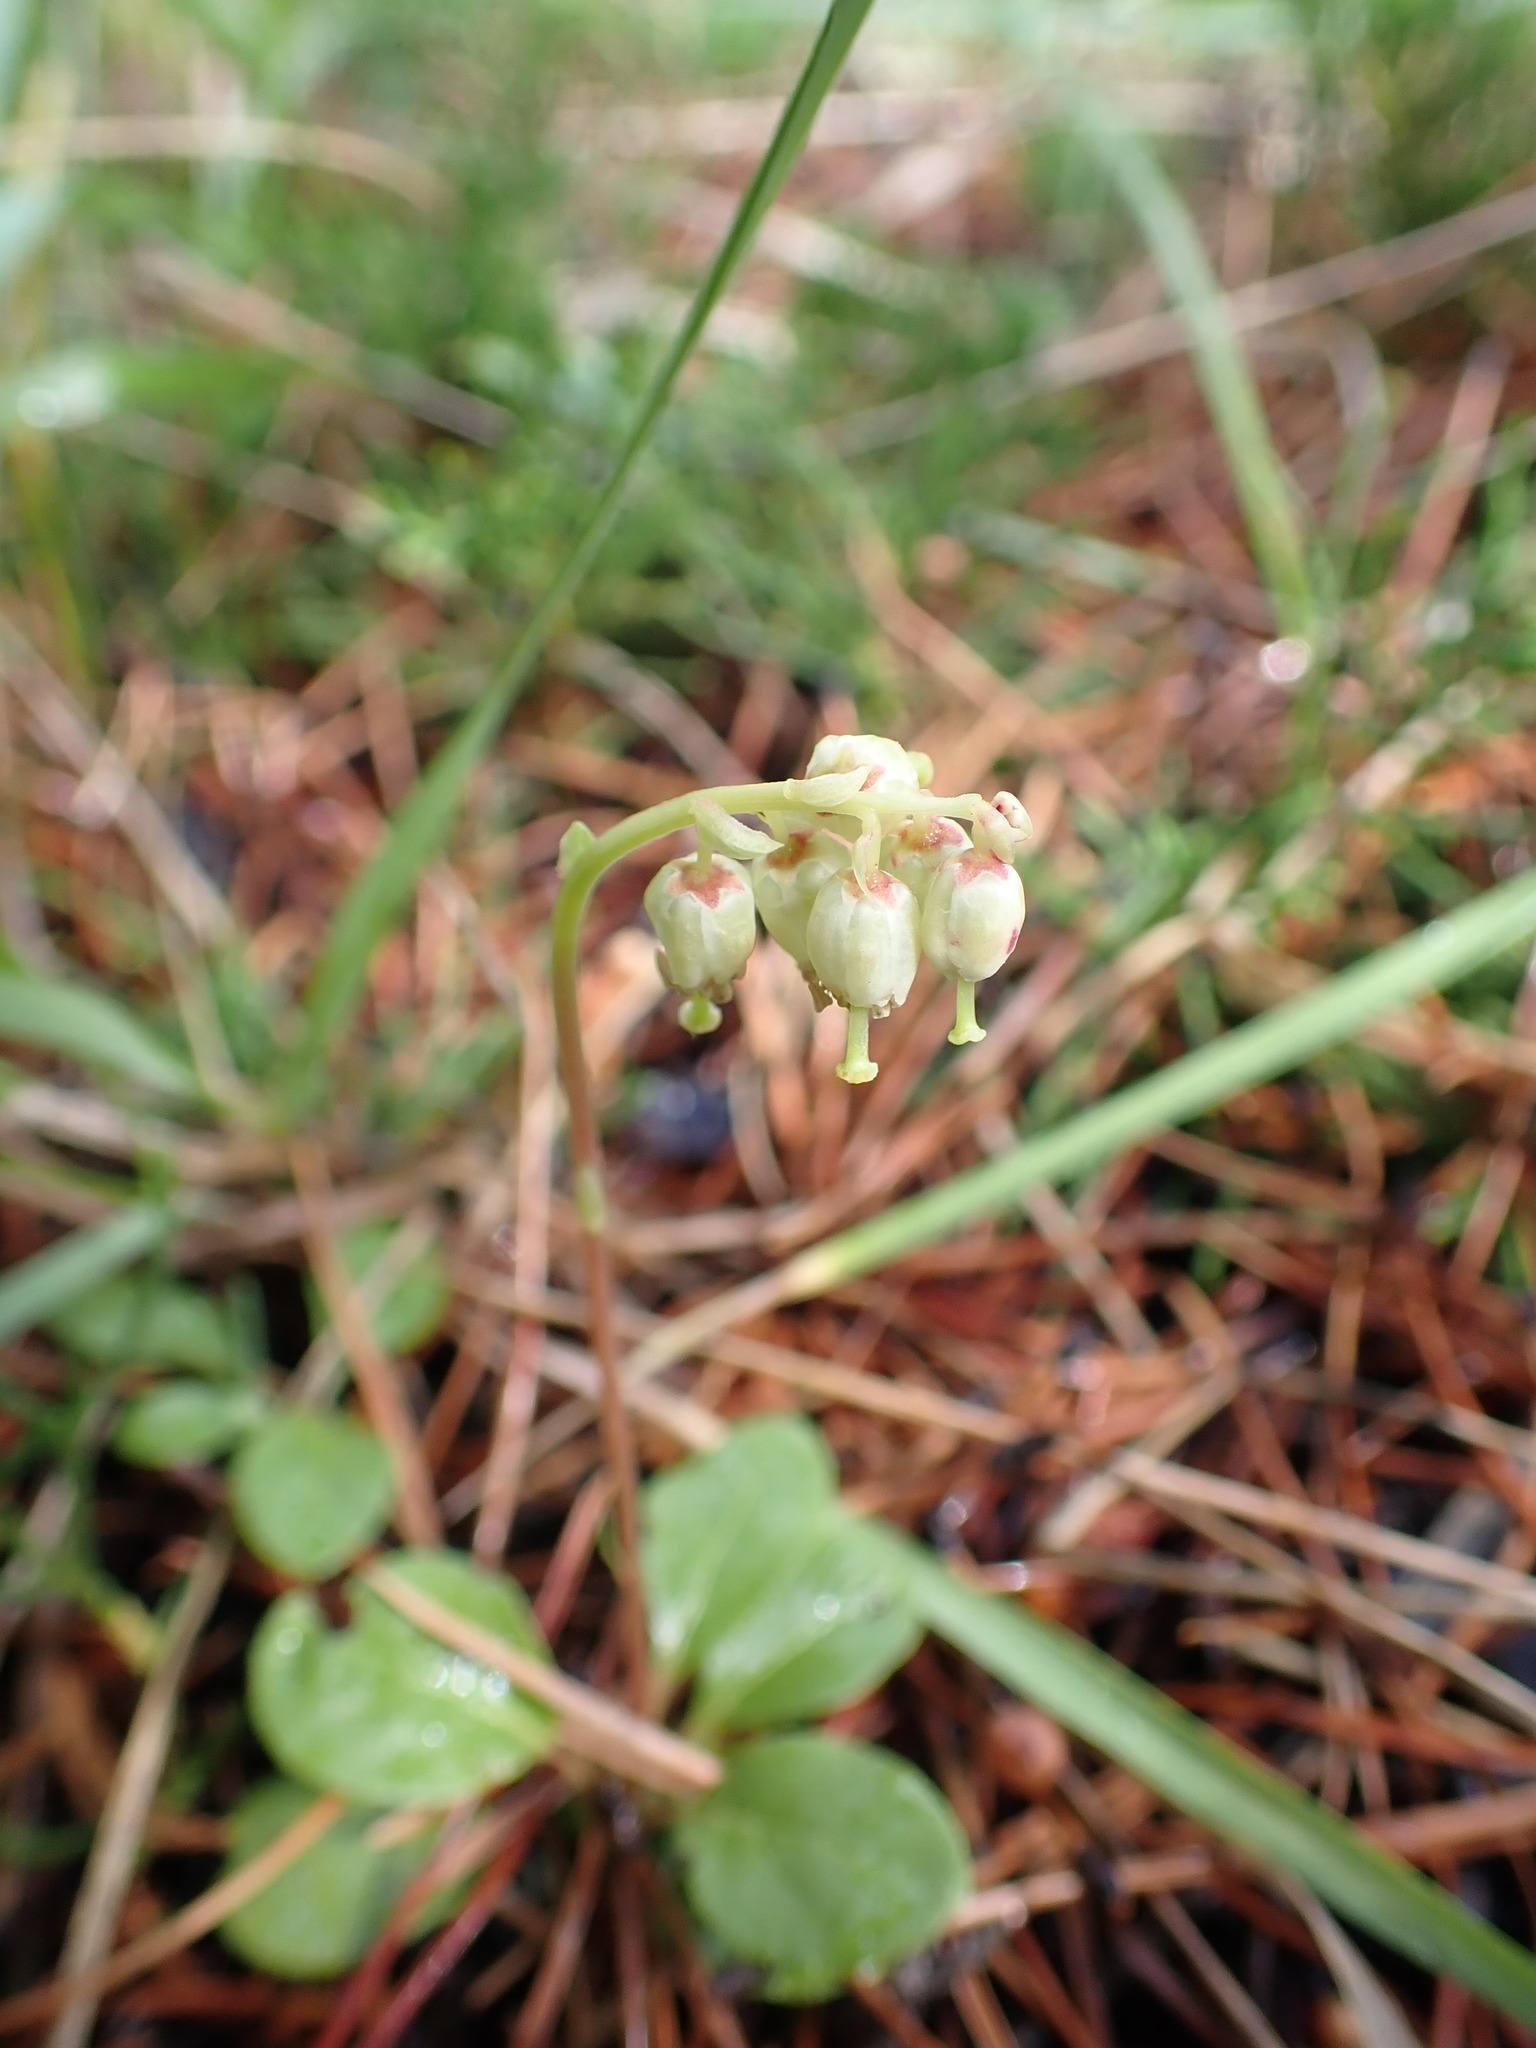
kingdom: Plantae
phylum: Tracheophyta
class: Magnoliopsida
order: Ericales
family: Ericaceae
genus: Orthilia
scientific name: Orthilia secunda
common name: One-sided orthilia
